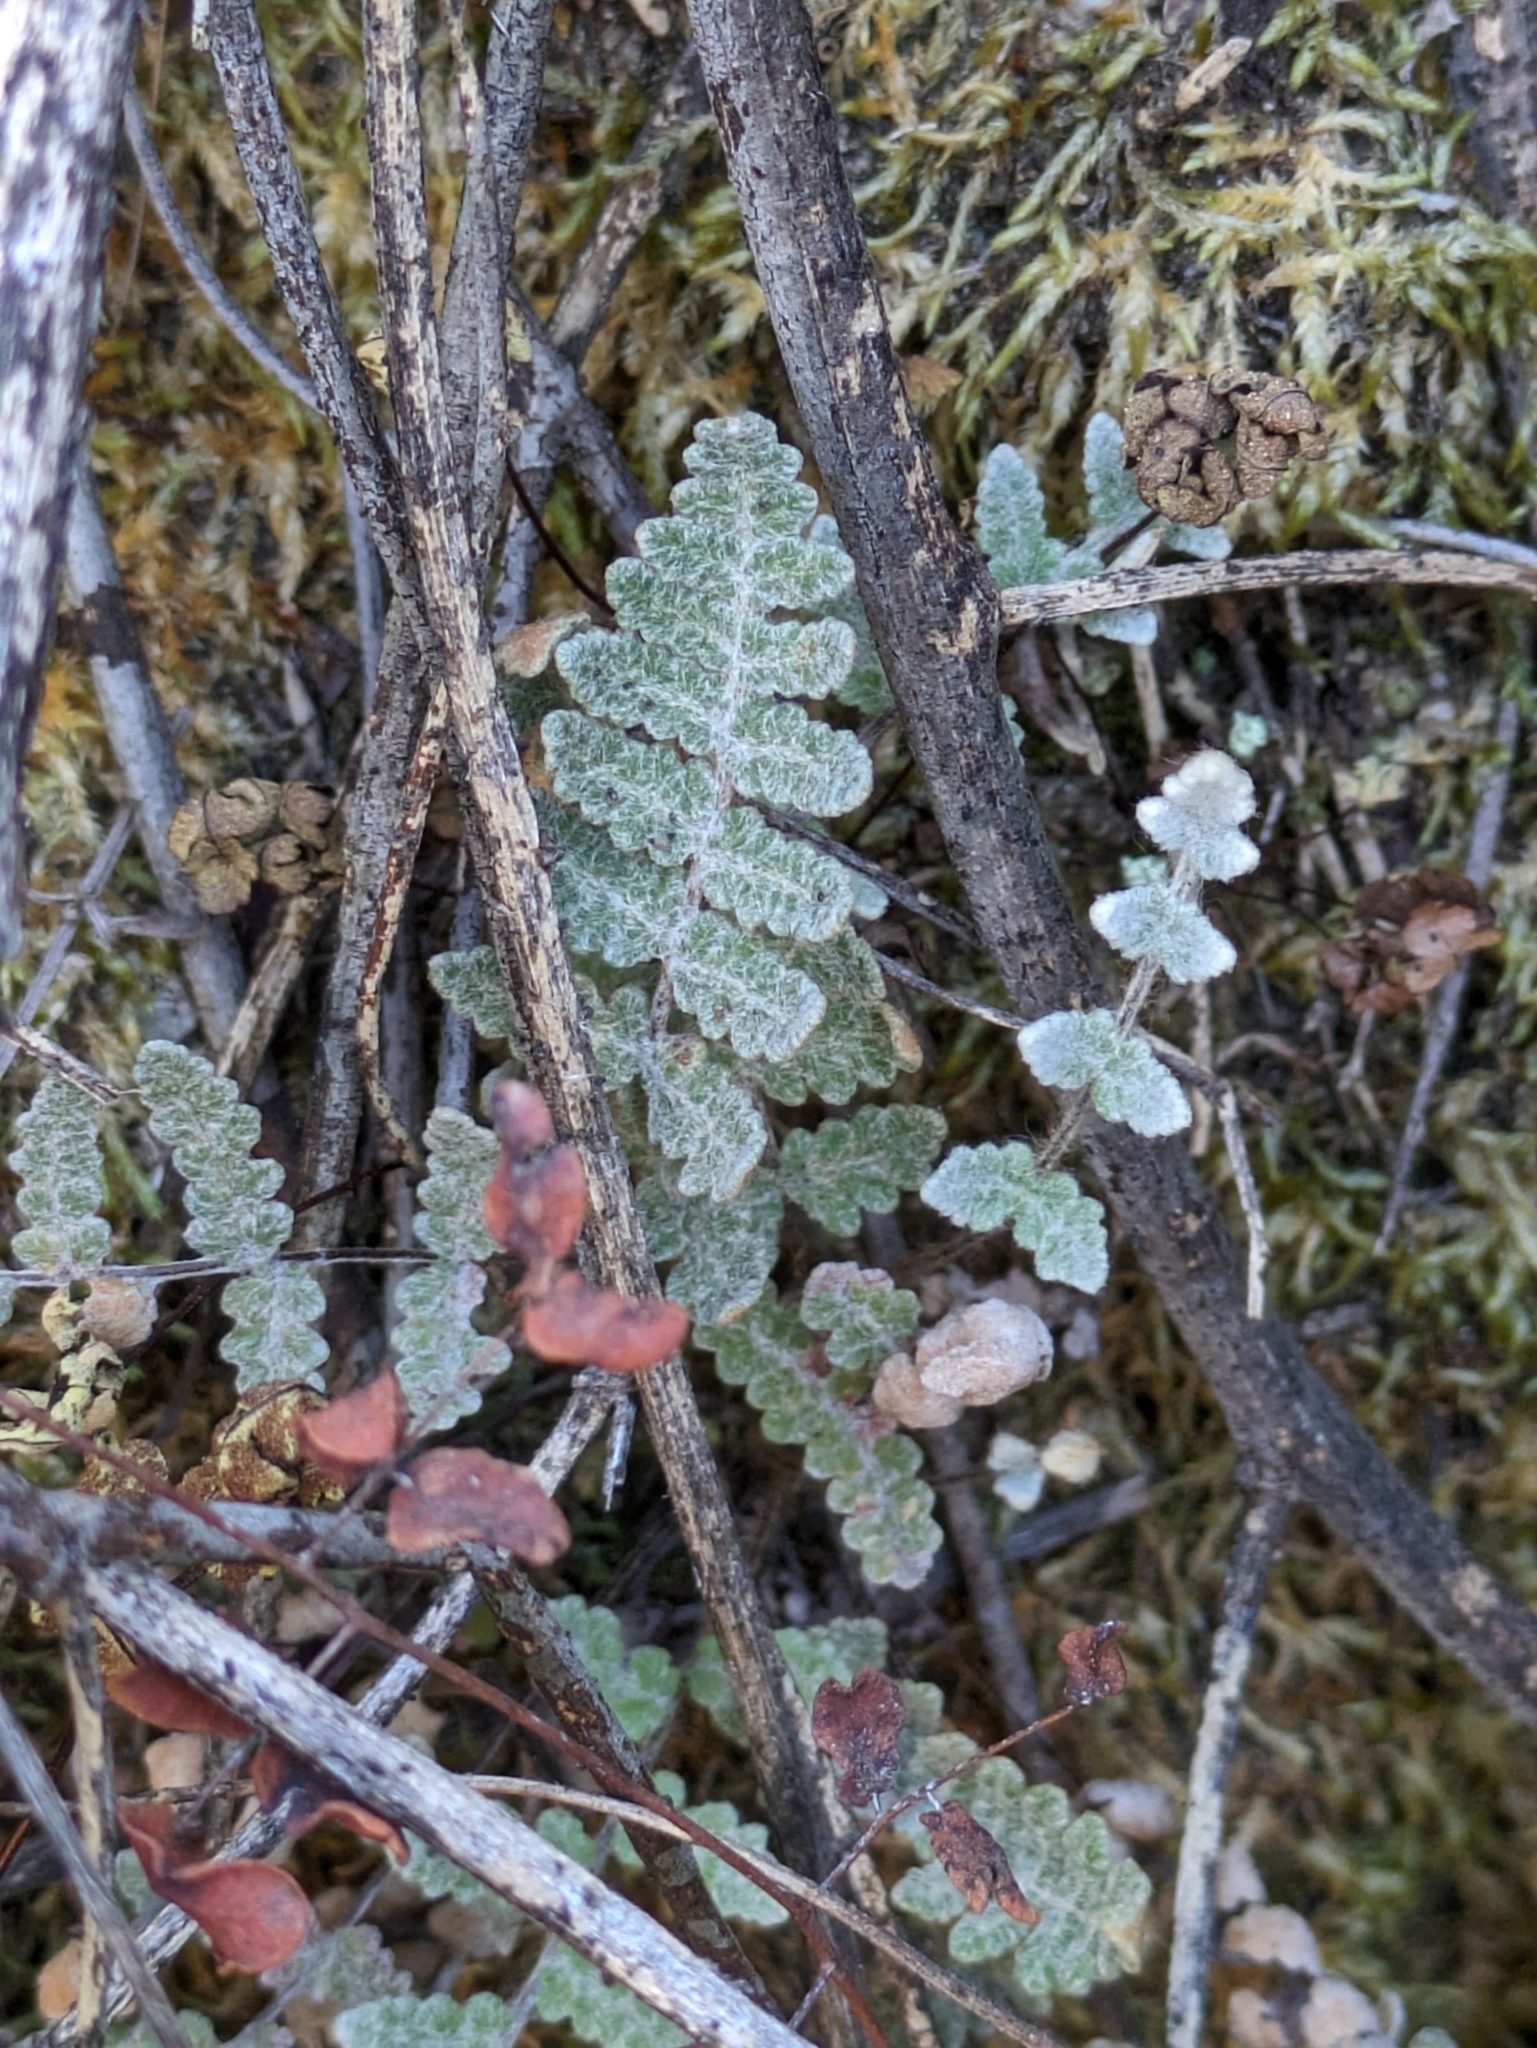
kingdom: Plantae
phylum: Tracheophyta
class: Polypodiopsida
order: Polypodiales
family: Pteridaceae
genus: Myriopteris
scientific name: Myriopteris newberryi
